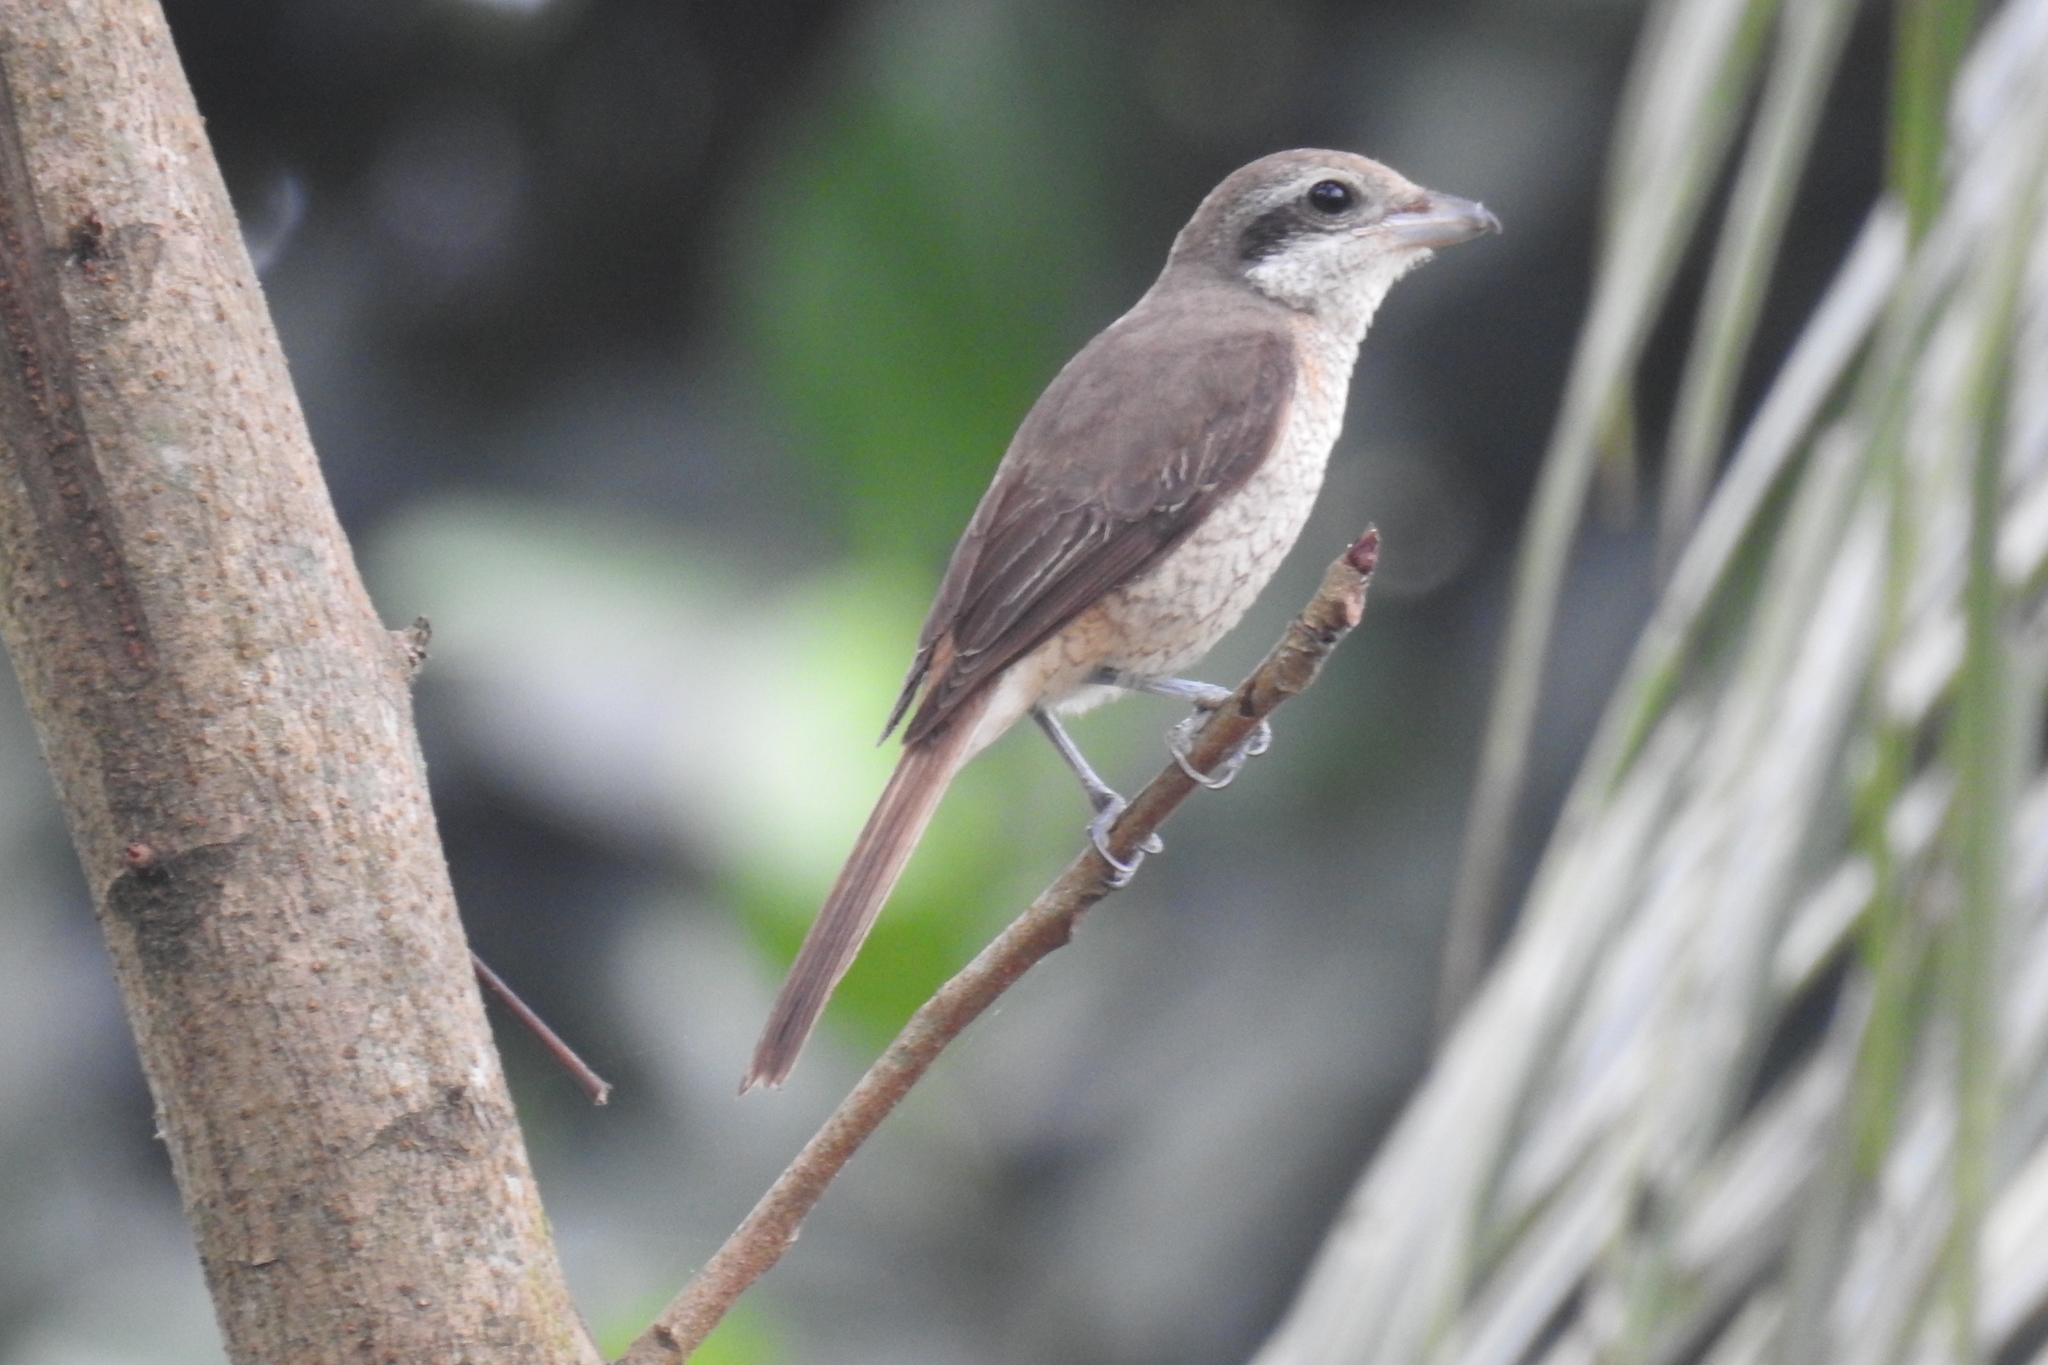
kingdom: Animalia
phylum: Chordata
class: Aves
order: Passeriformes
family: Laniidae
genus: Lanius
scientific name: Lanius cristatus
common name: Brown shrike
